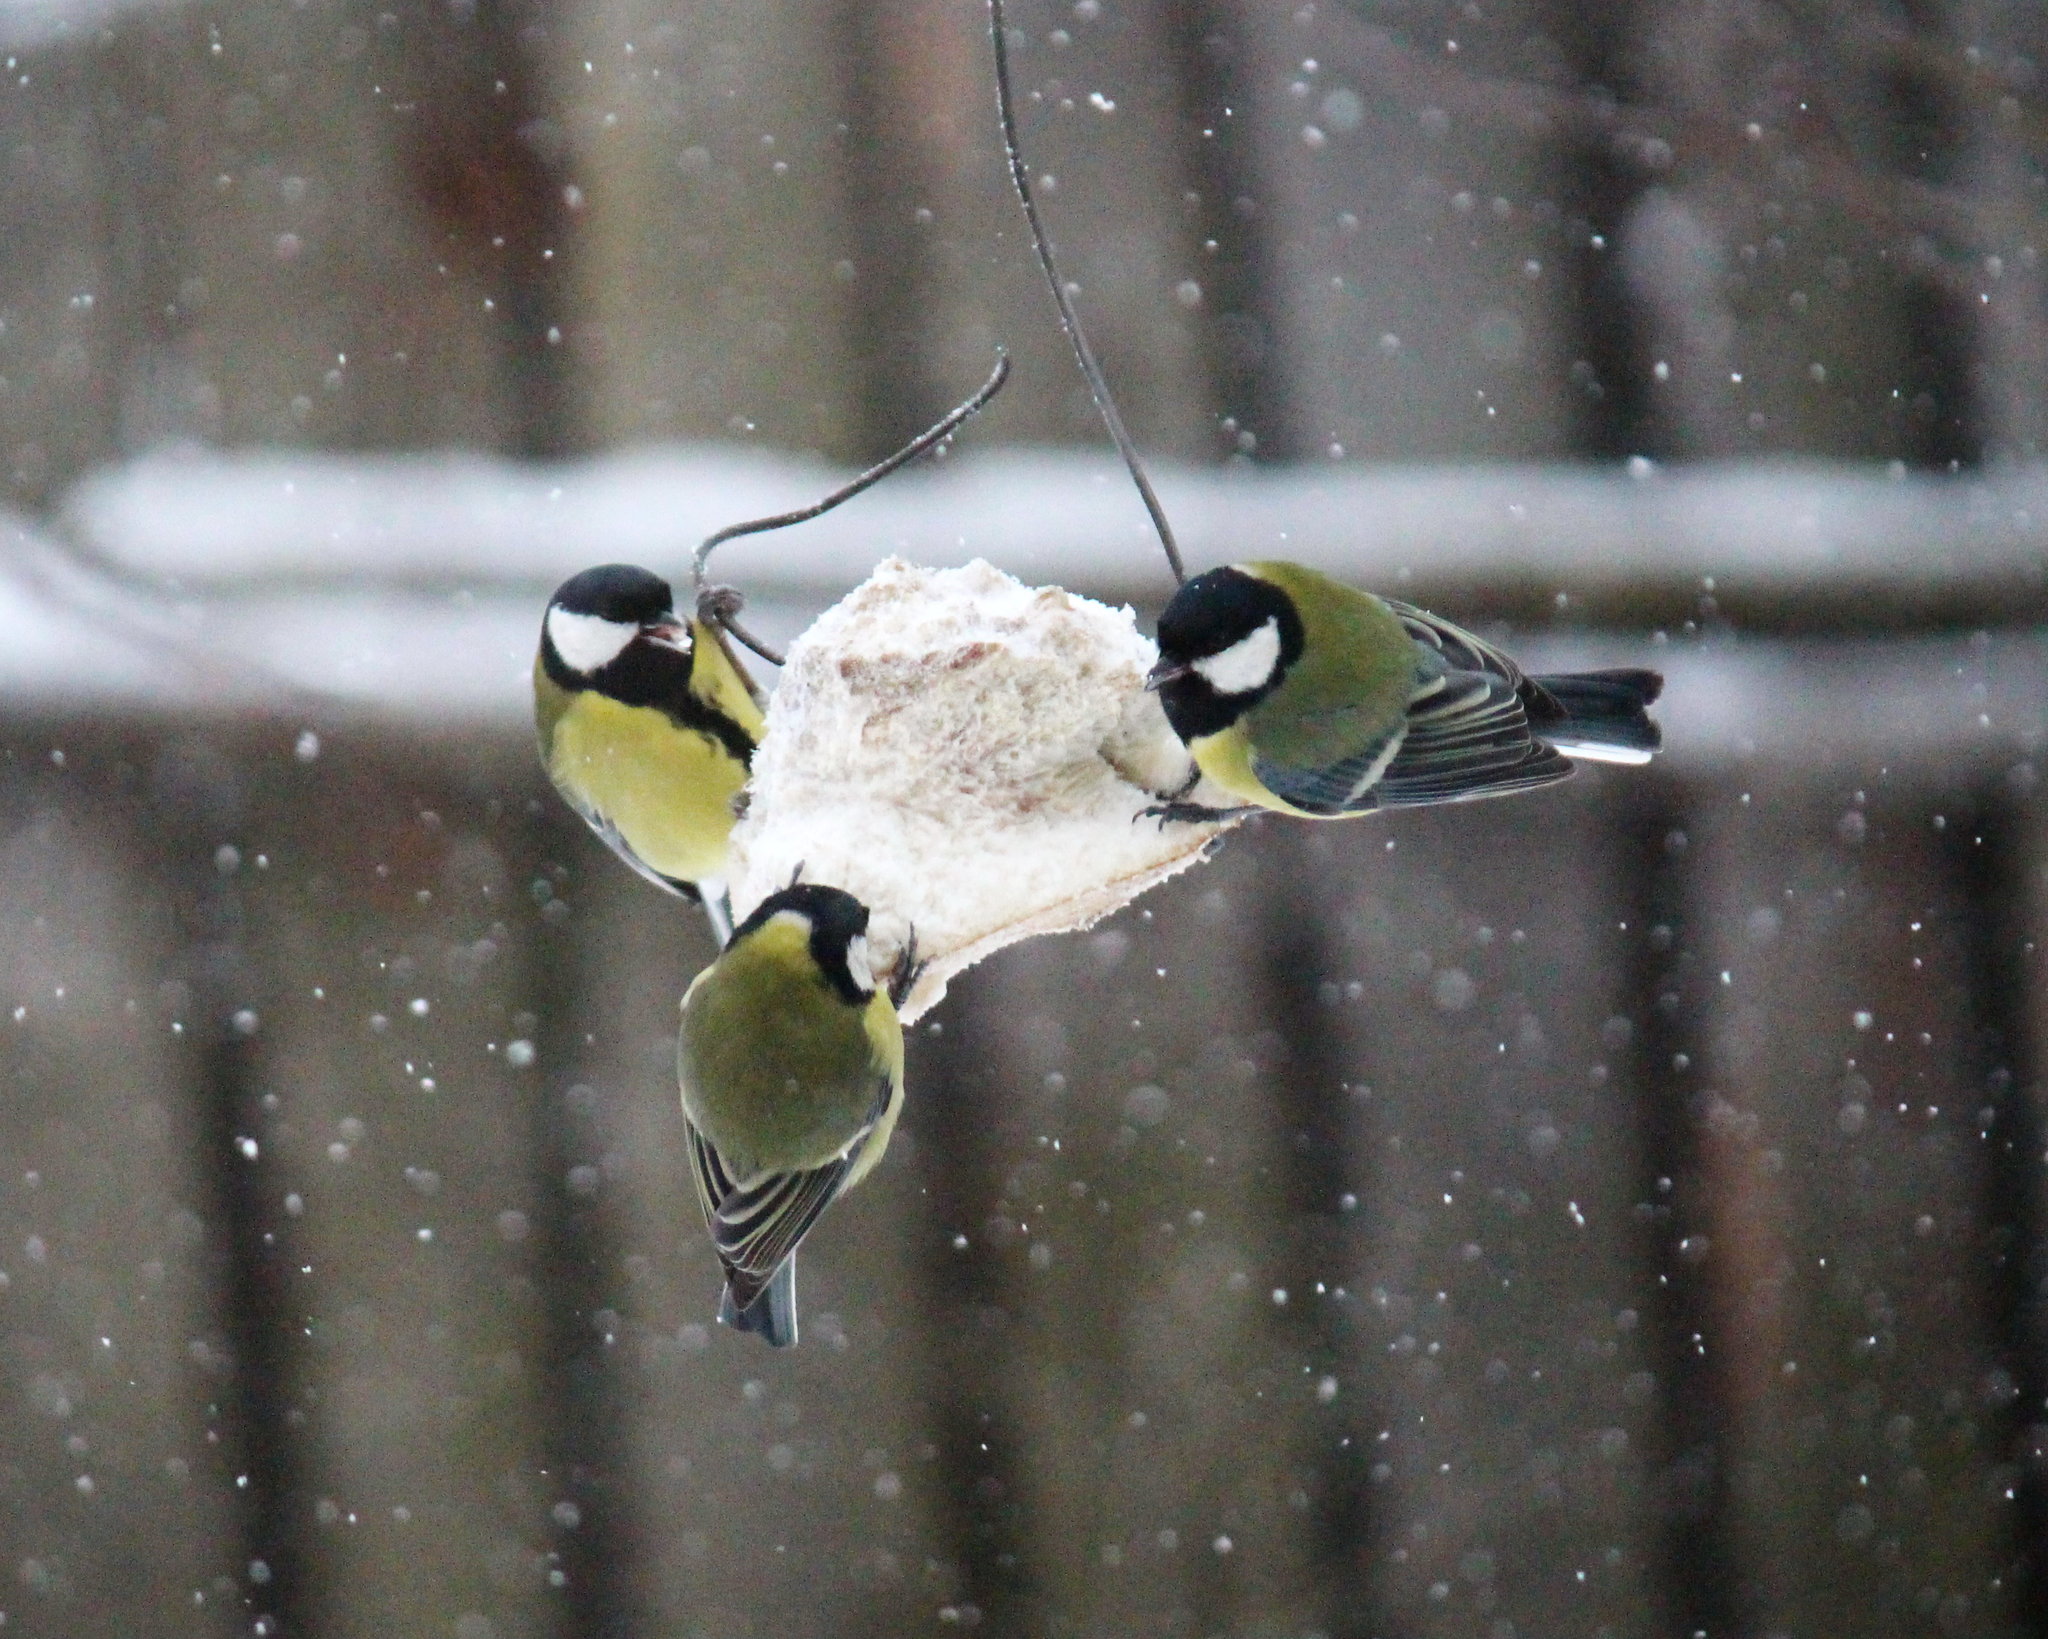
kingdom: Animalia
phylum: Chordata
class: Aves
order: Passeriformes
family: Paridae
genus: Parus
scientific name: Parus major
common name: Great tit
